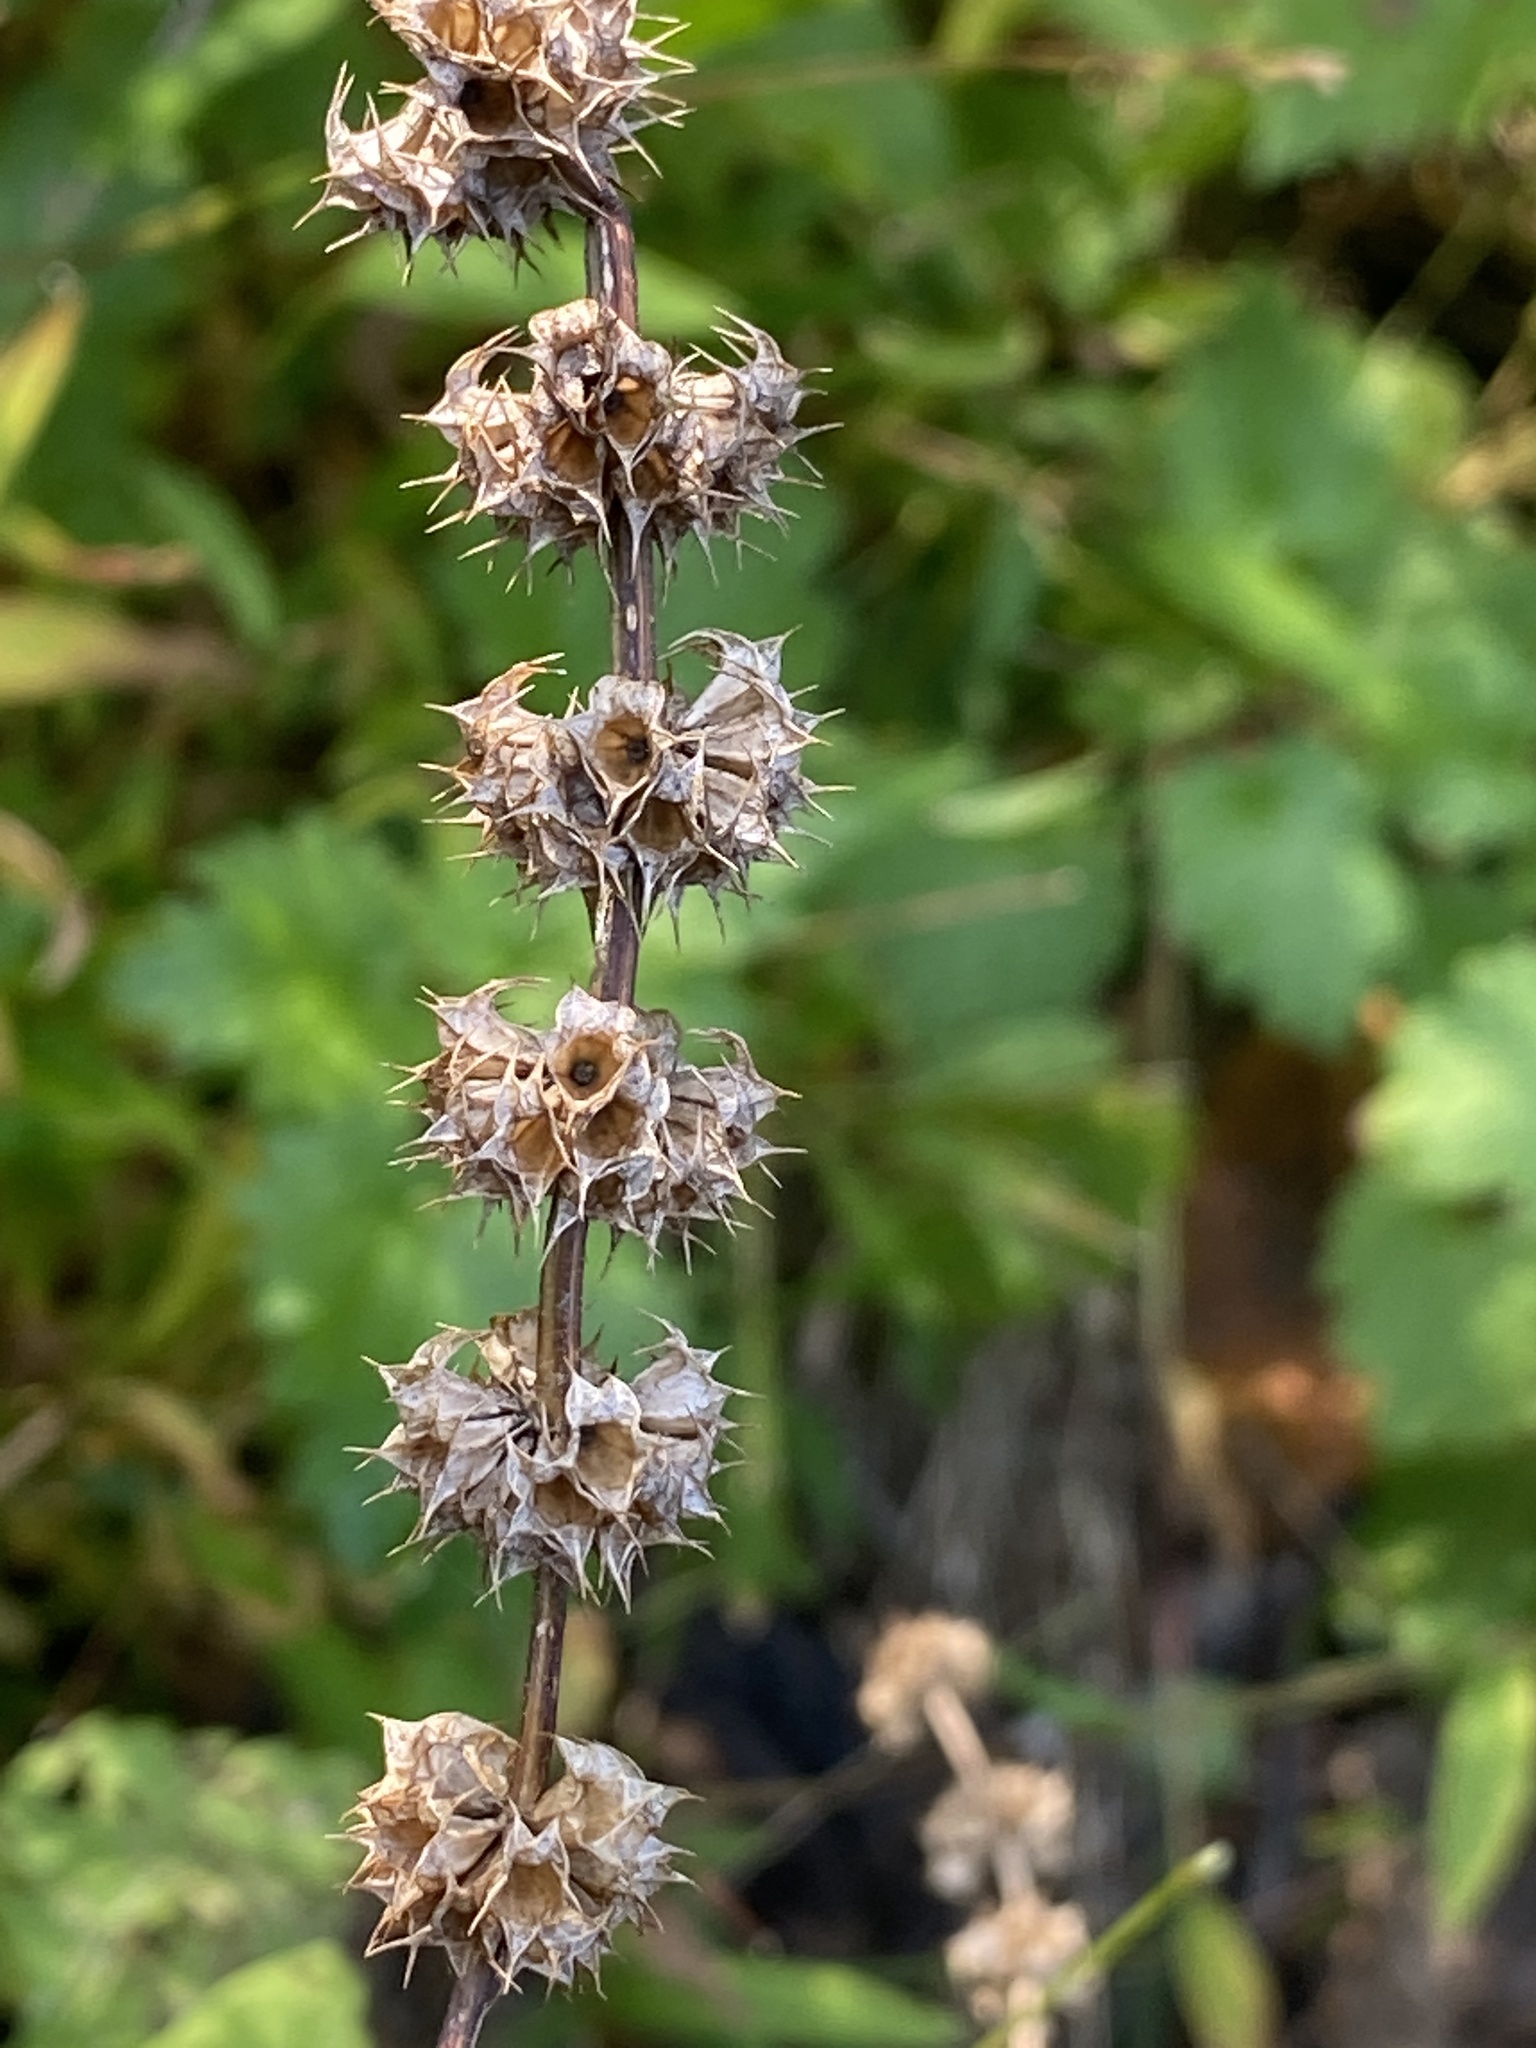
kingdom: Plantae
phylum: Tracheophyta
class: Magnoliopsida
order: Lamiales
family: Lamiaceae
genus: Leonurus
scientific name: Leonurus cardiaca
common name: Motherwort
